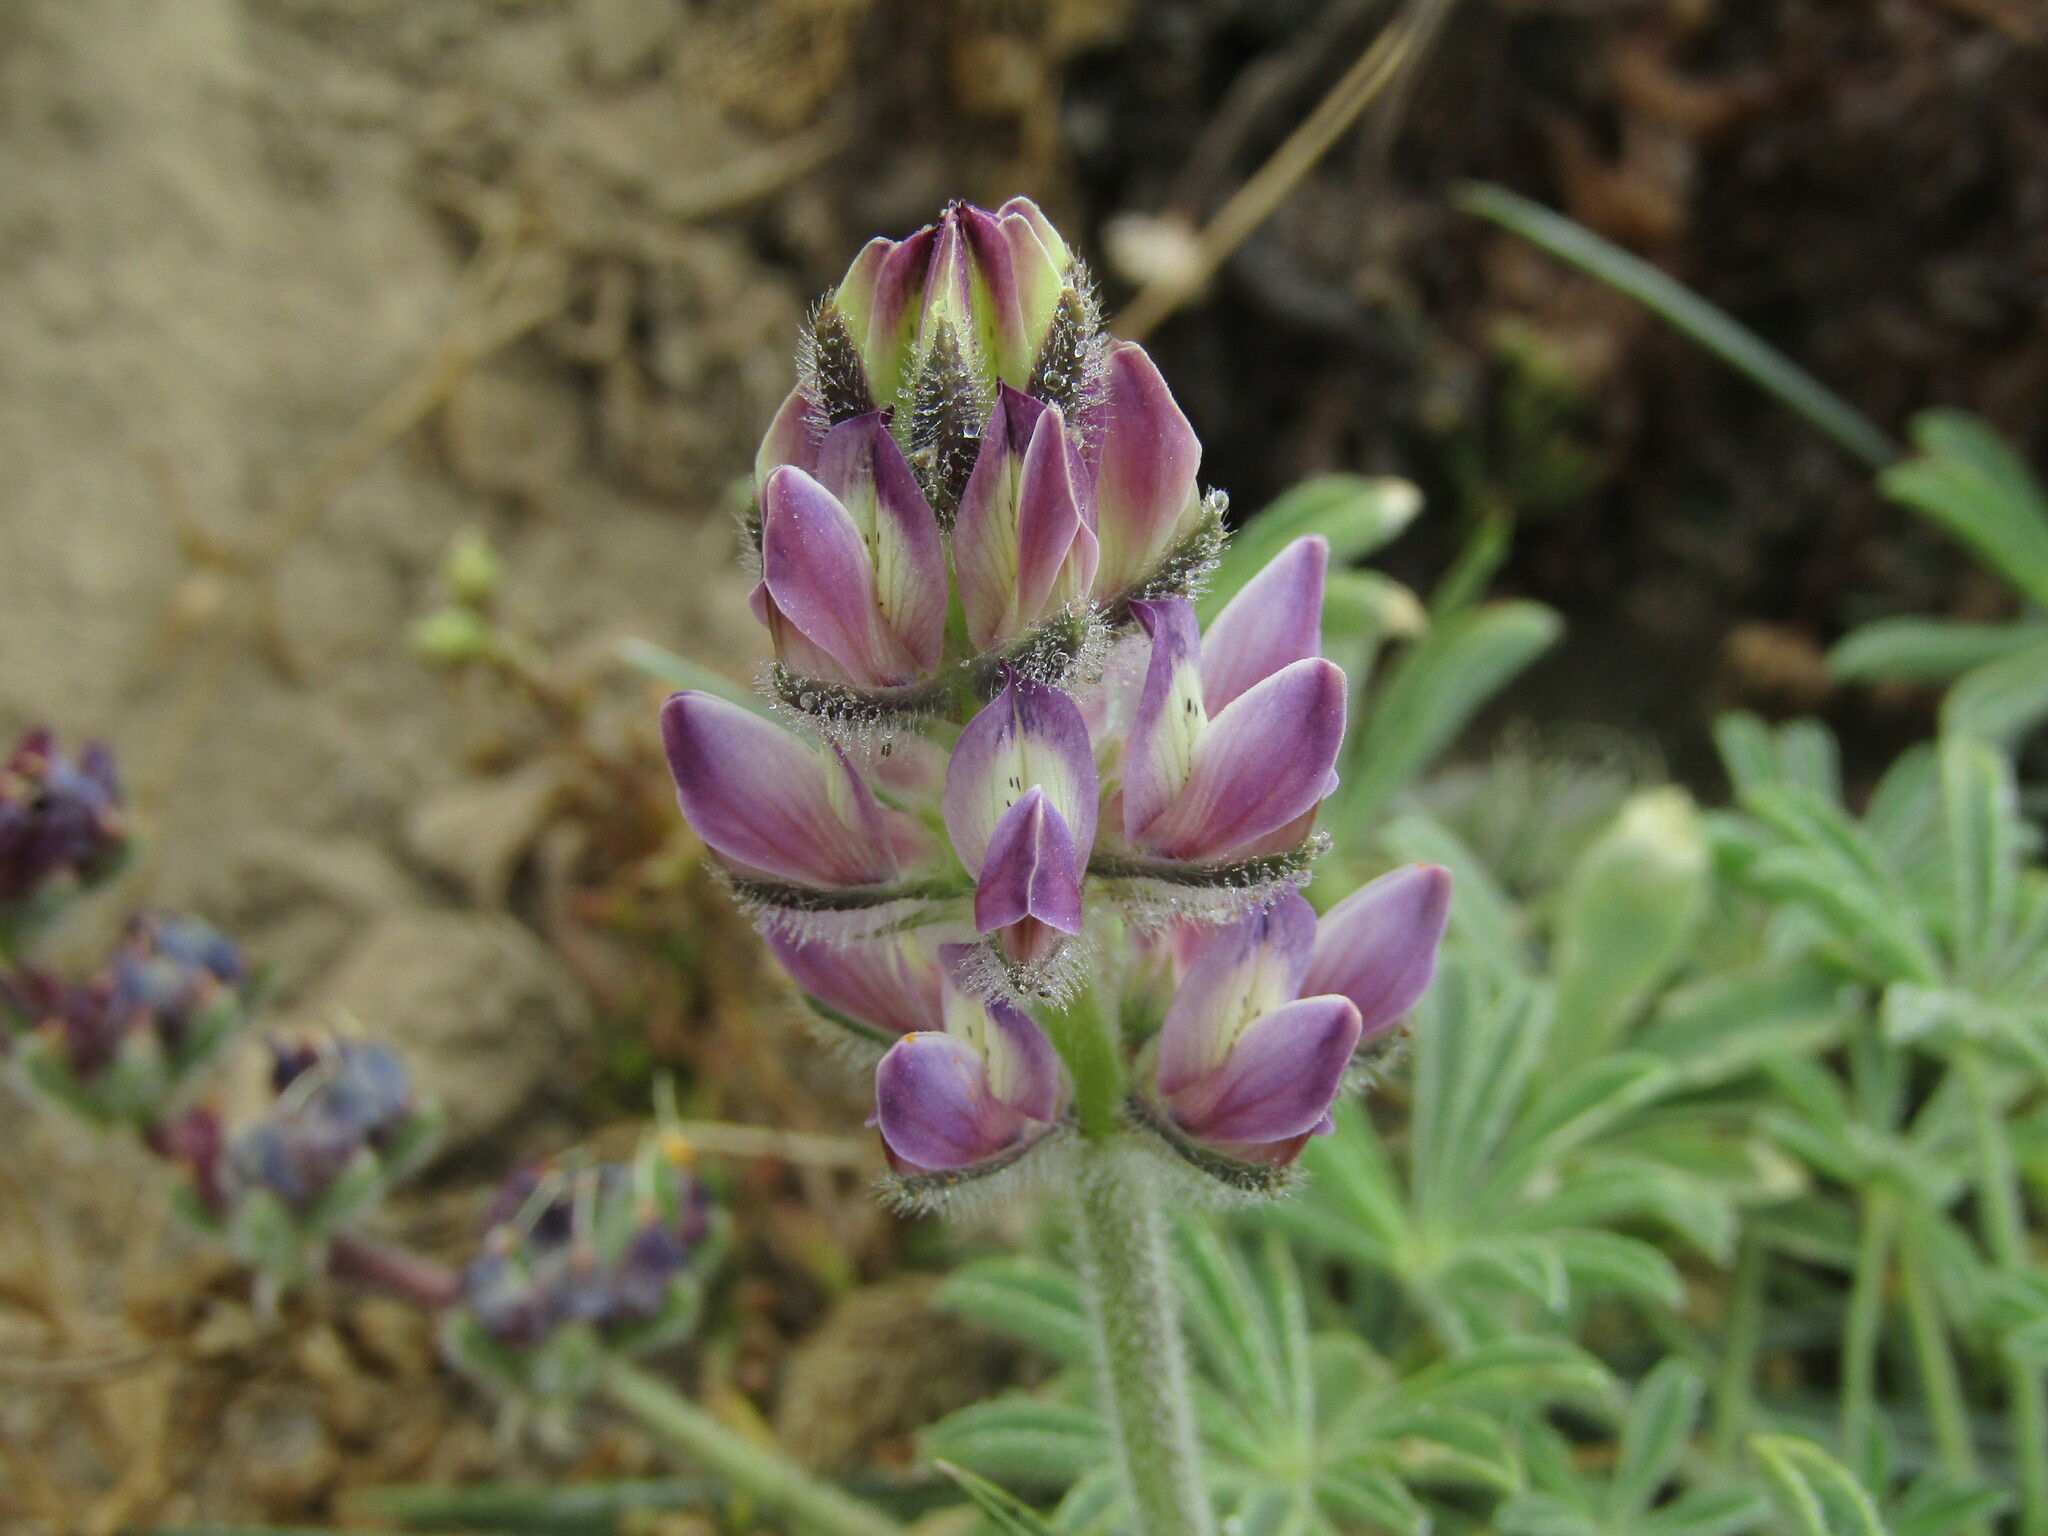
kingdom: Plantae
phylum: Tracheophyta
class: Magnoliopsida
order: Fabales
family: Fabaceae
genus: Lupinus
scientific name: Lupinus microcarpus
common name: Chick lupine
